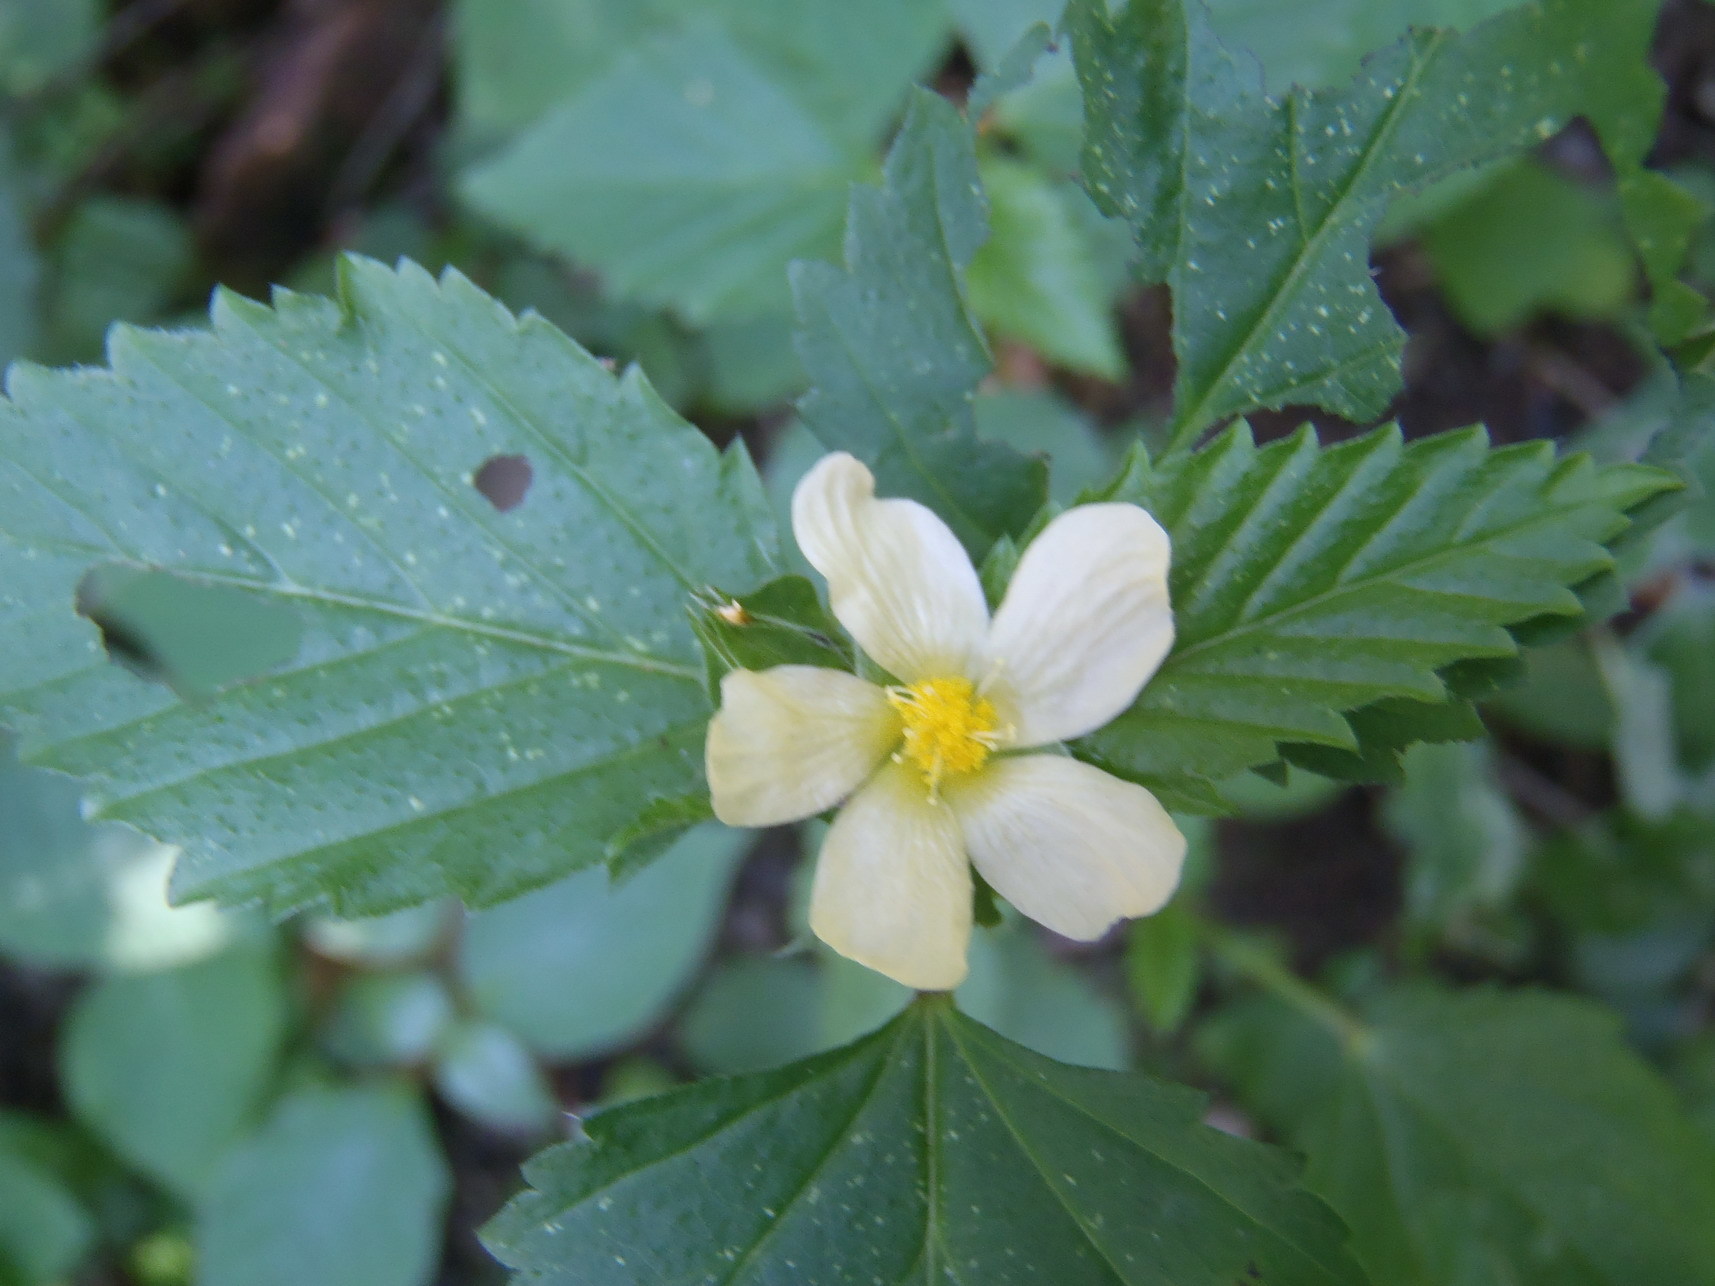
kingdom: Plantae
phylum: Tracheophyta
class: Magnoliopsida
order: Malvales
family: Malvaceae
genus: Malvastrum
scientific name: Malvastrum coromandelianum
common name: Threelobe false mallow
